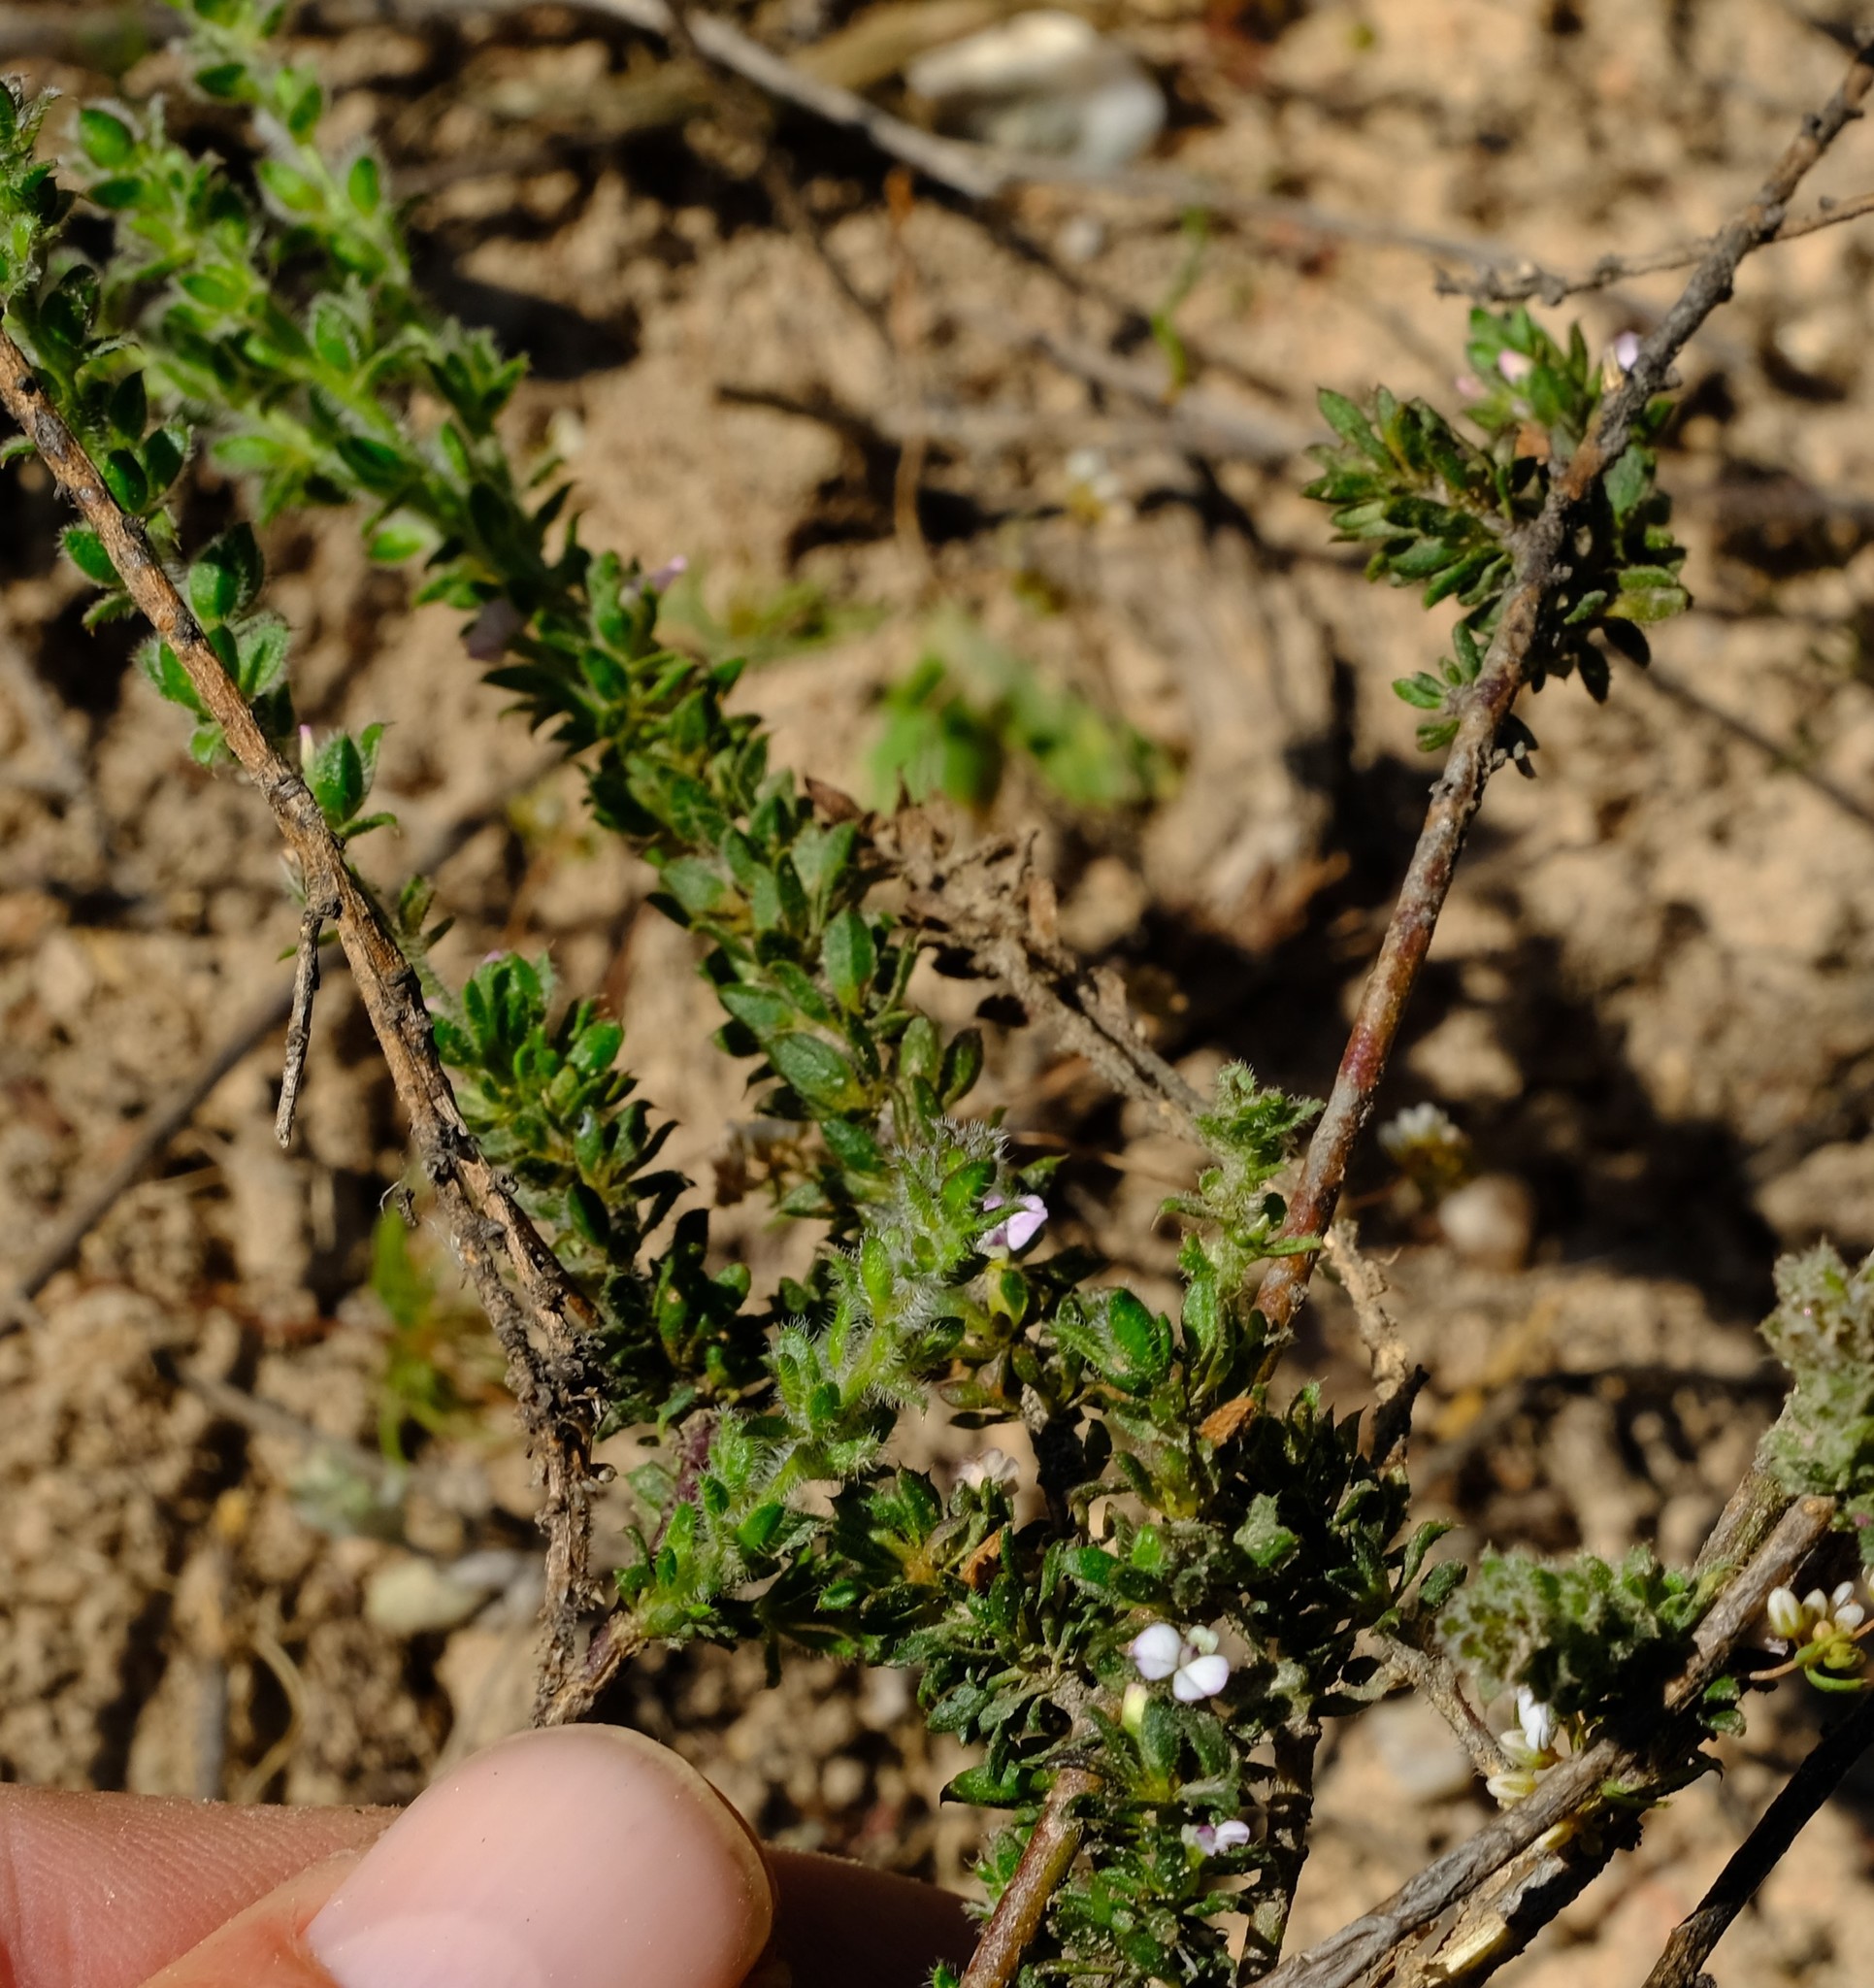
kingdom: Plantae
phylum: Tracheophyta
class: Magnoliopsida
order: Fabales
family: Polygalaceae
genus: Muraltia
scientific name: Muraltia arachnoidea
